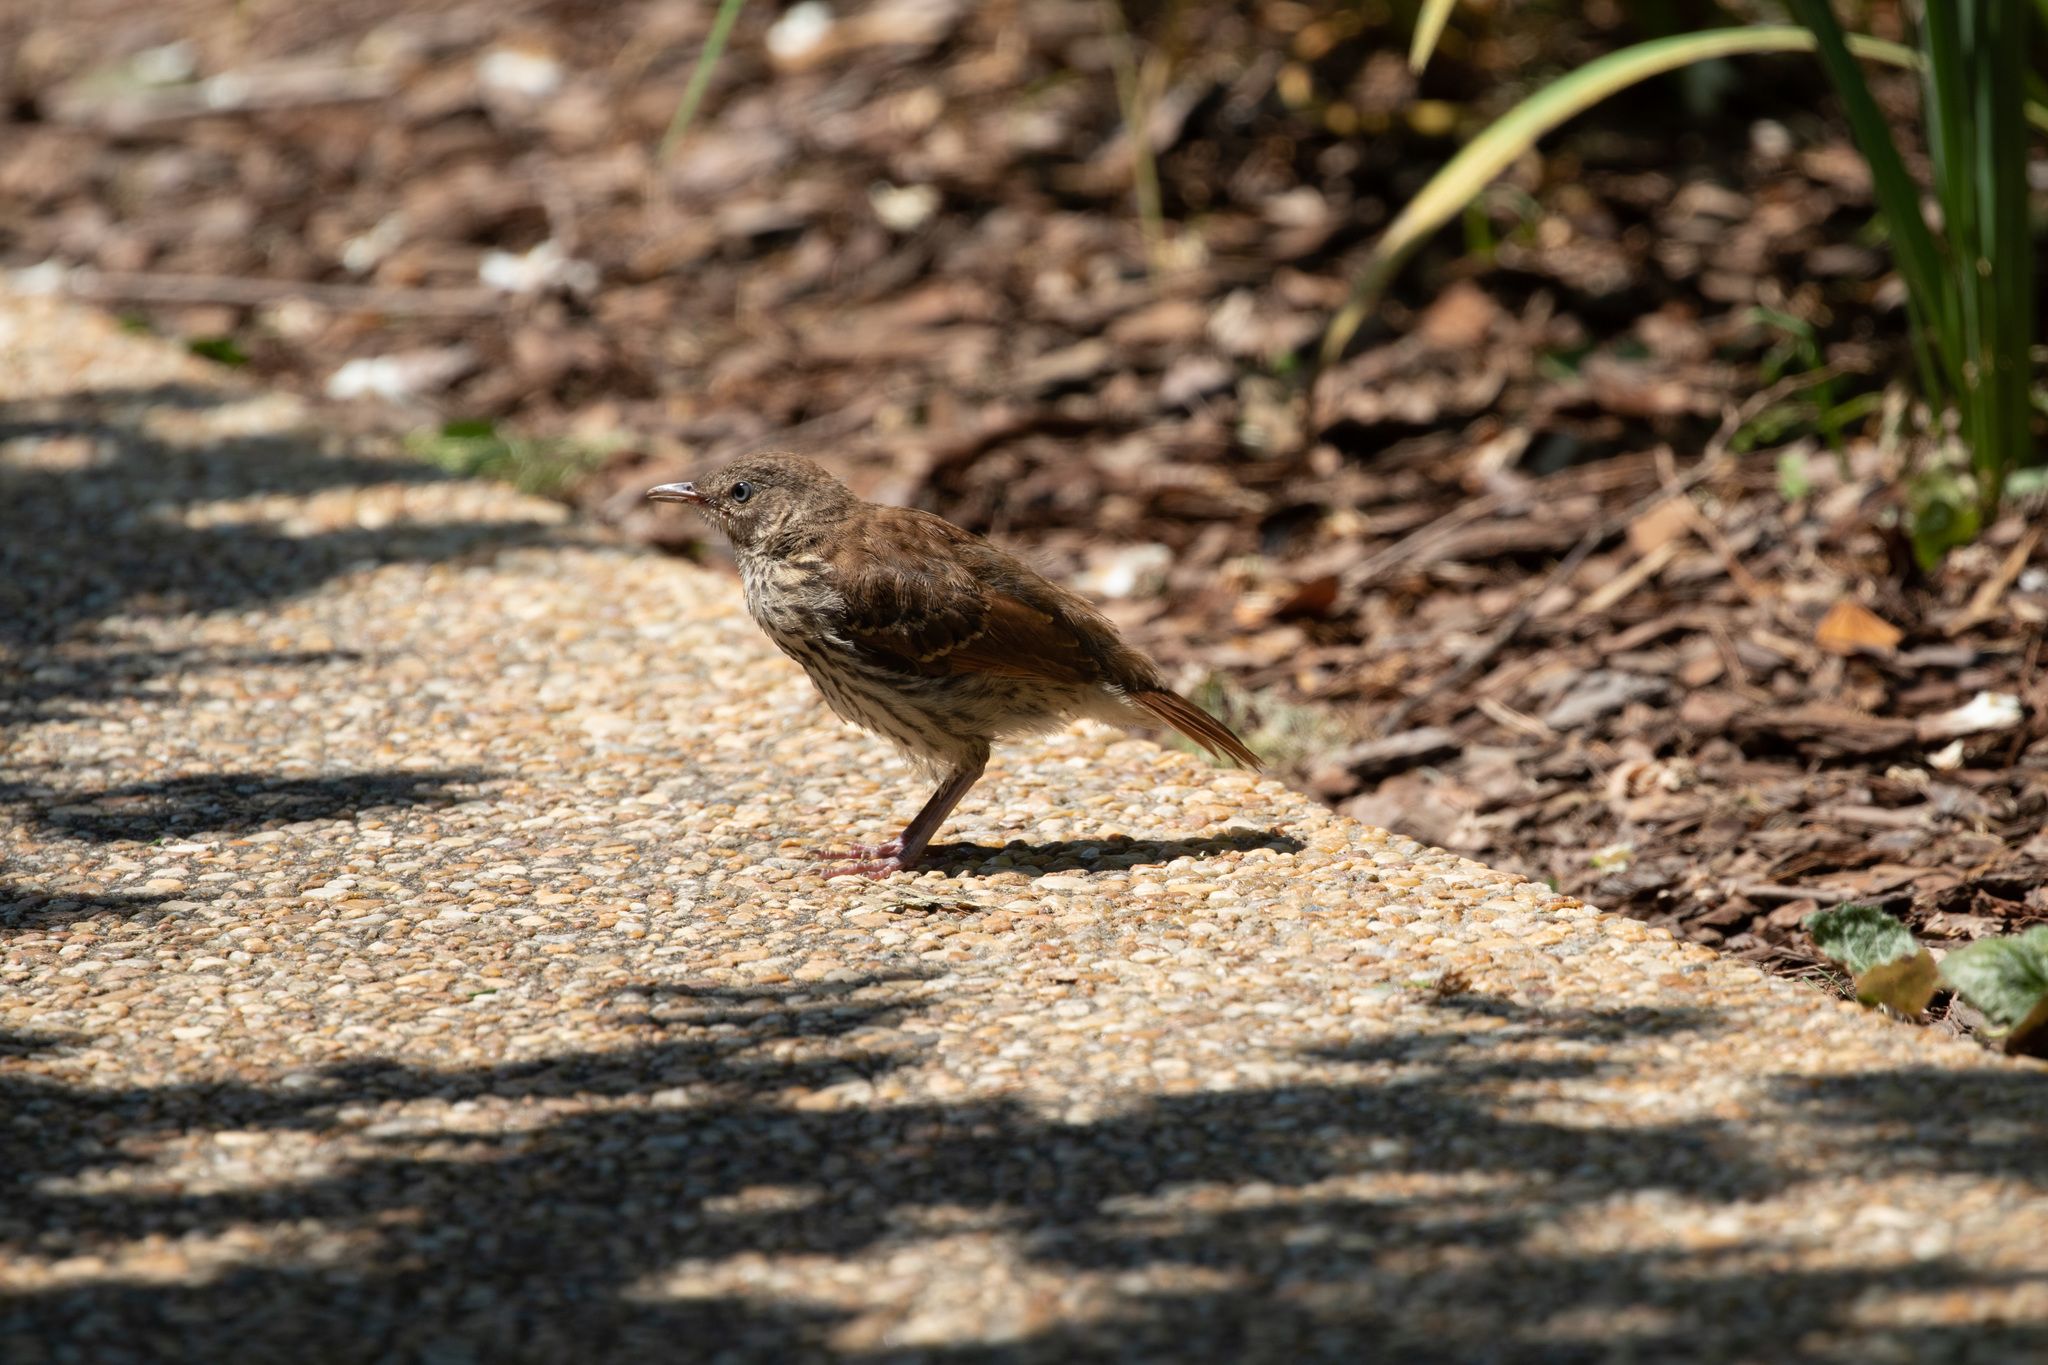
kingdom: Animalia
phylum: Chordata
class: Aves
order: Passeriformes
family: Mimidae
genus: Toxostoma
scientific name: Toxostoma rufum
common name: Brown thrasher
